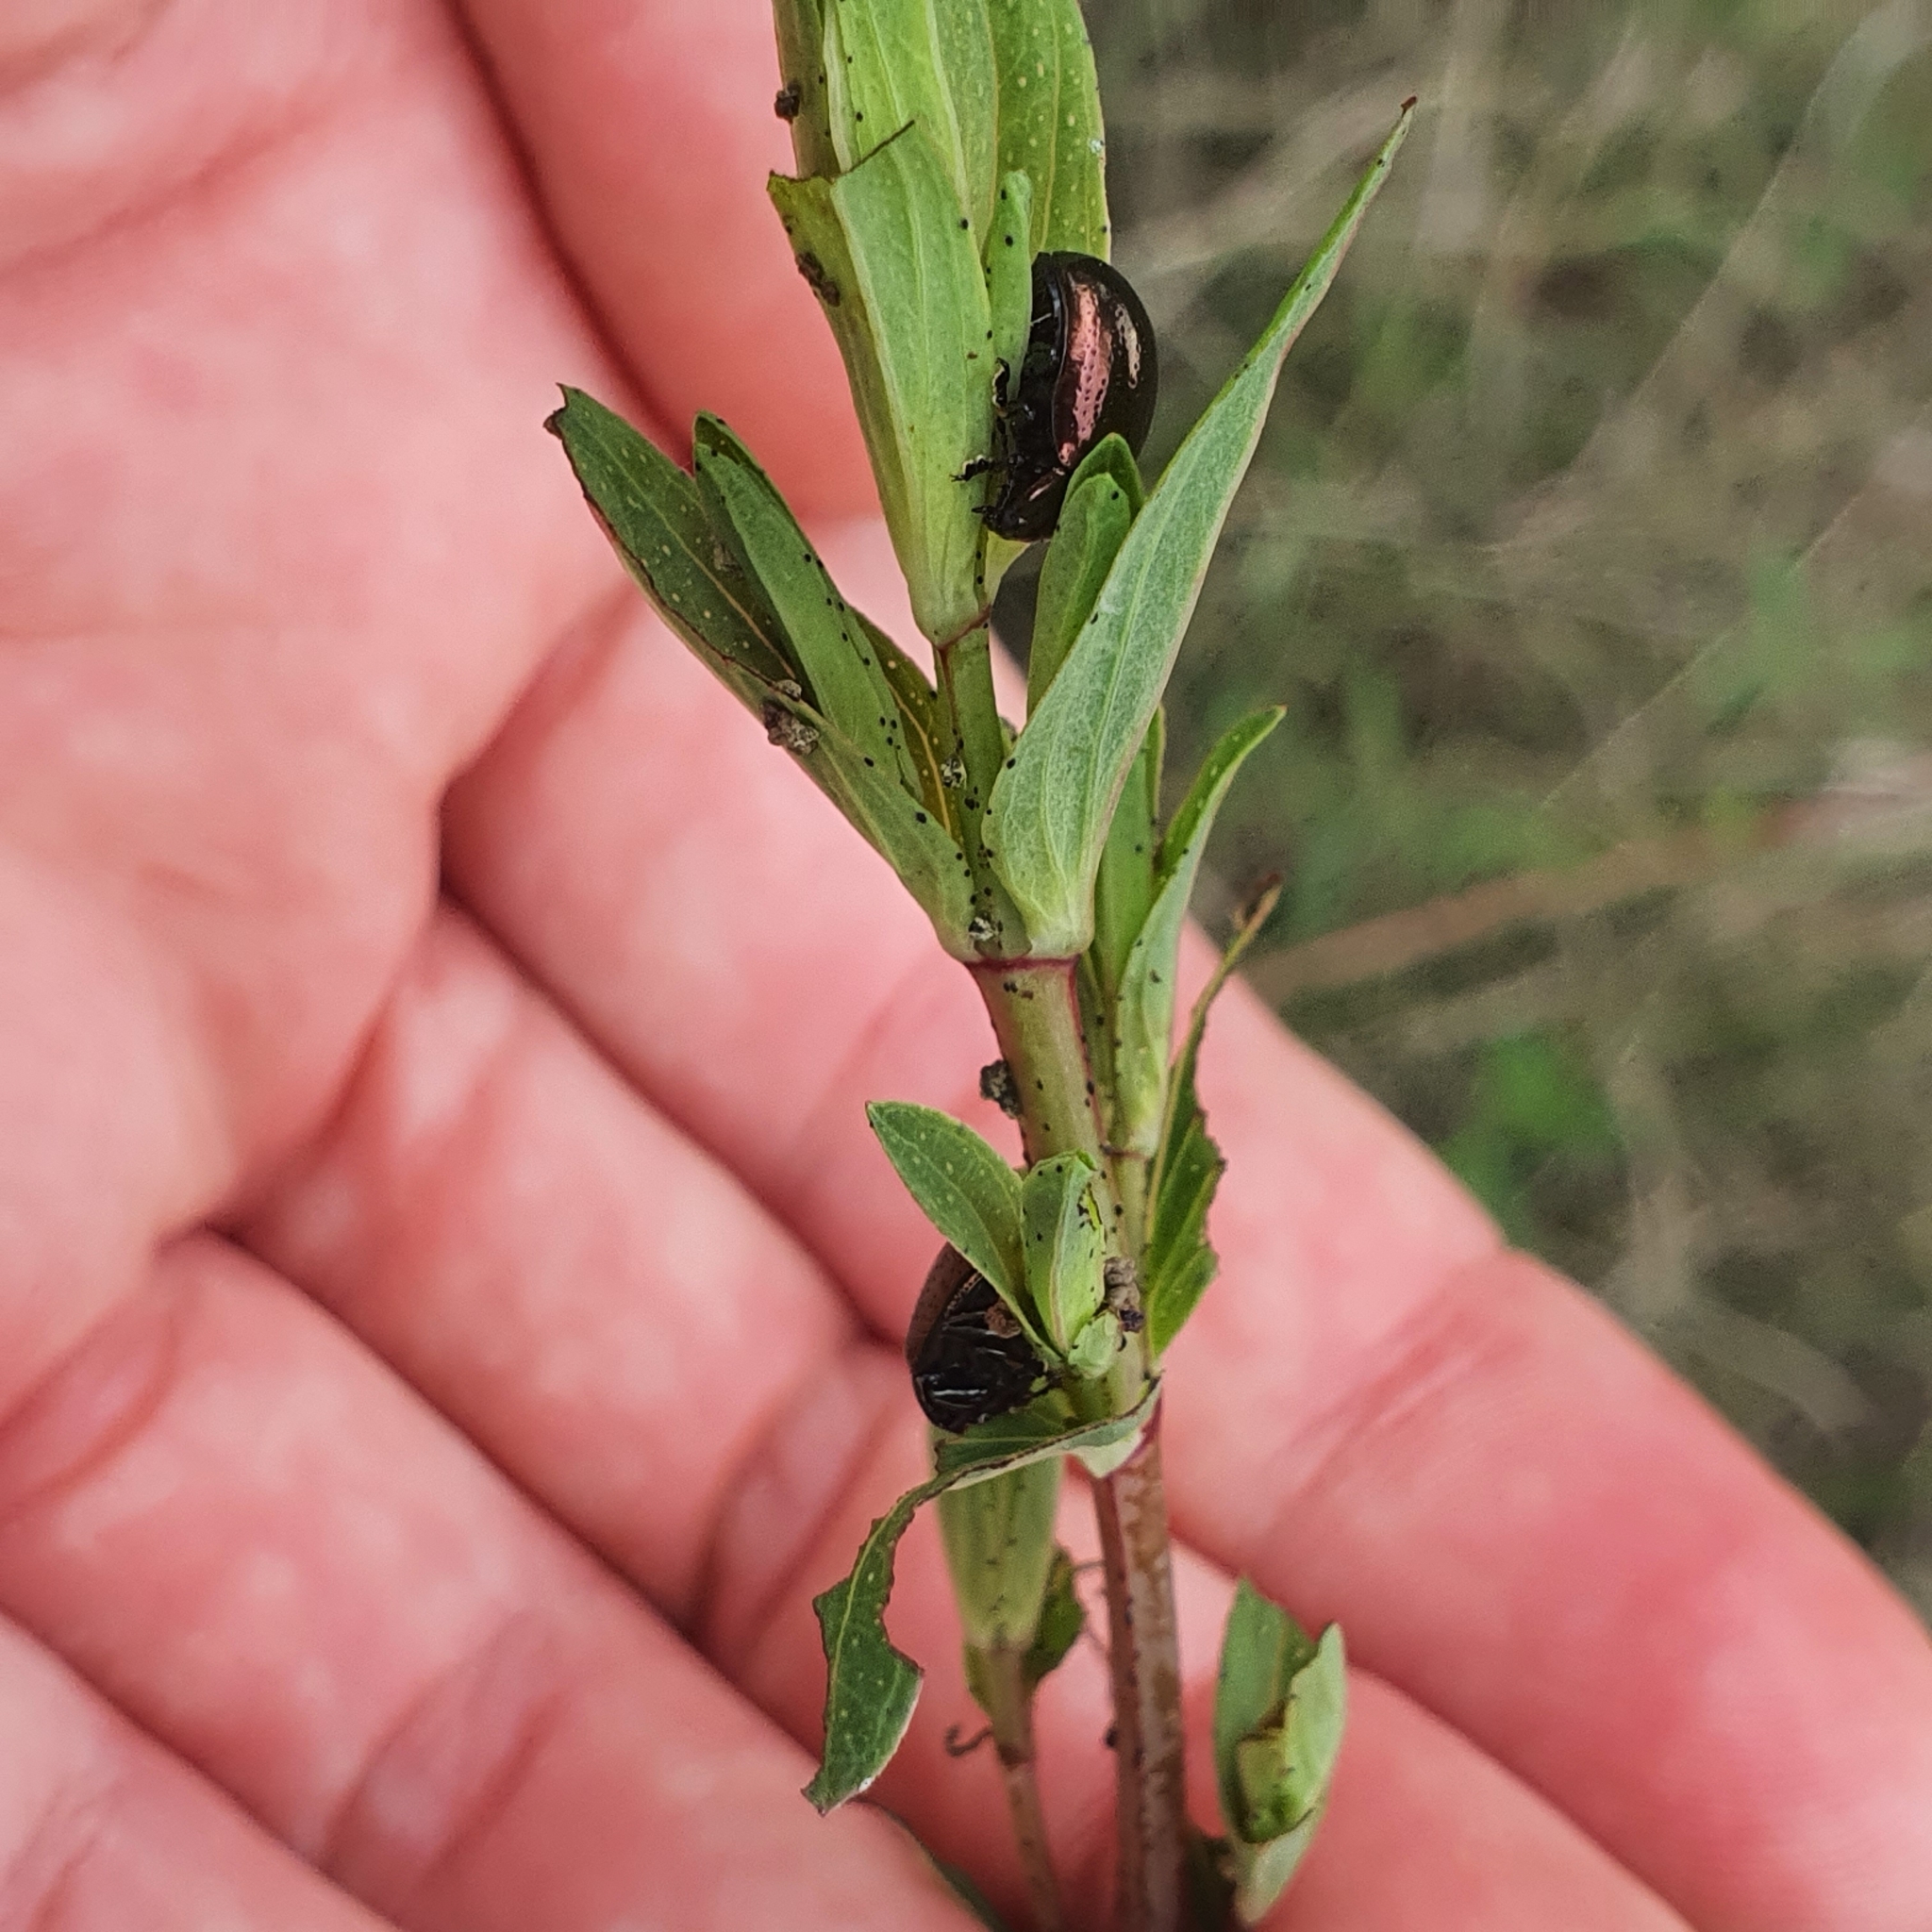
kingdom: Animalia
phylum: Arthropoda
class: Insecta
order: Coleoptera
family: Chrysomelidae
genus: Chrysolina
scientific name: Chrysolina hyperici
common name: St. johnswort beetle
